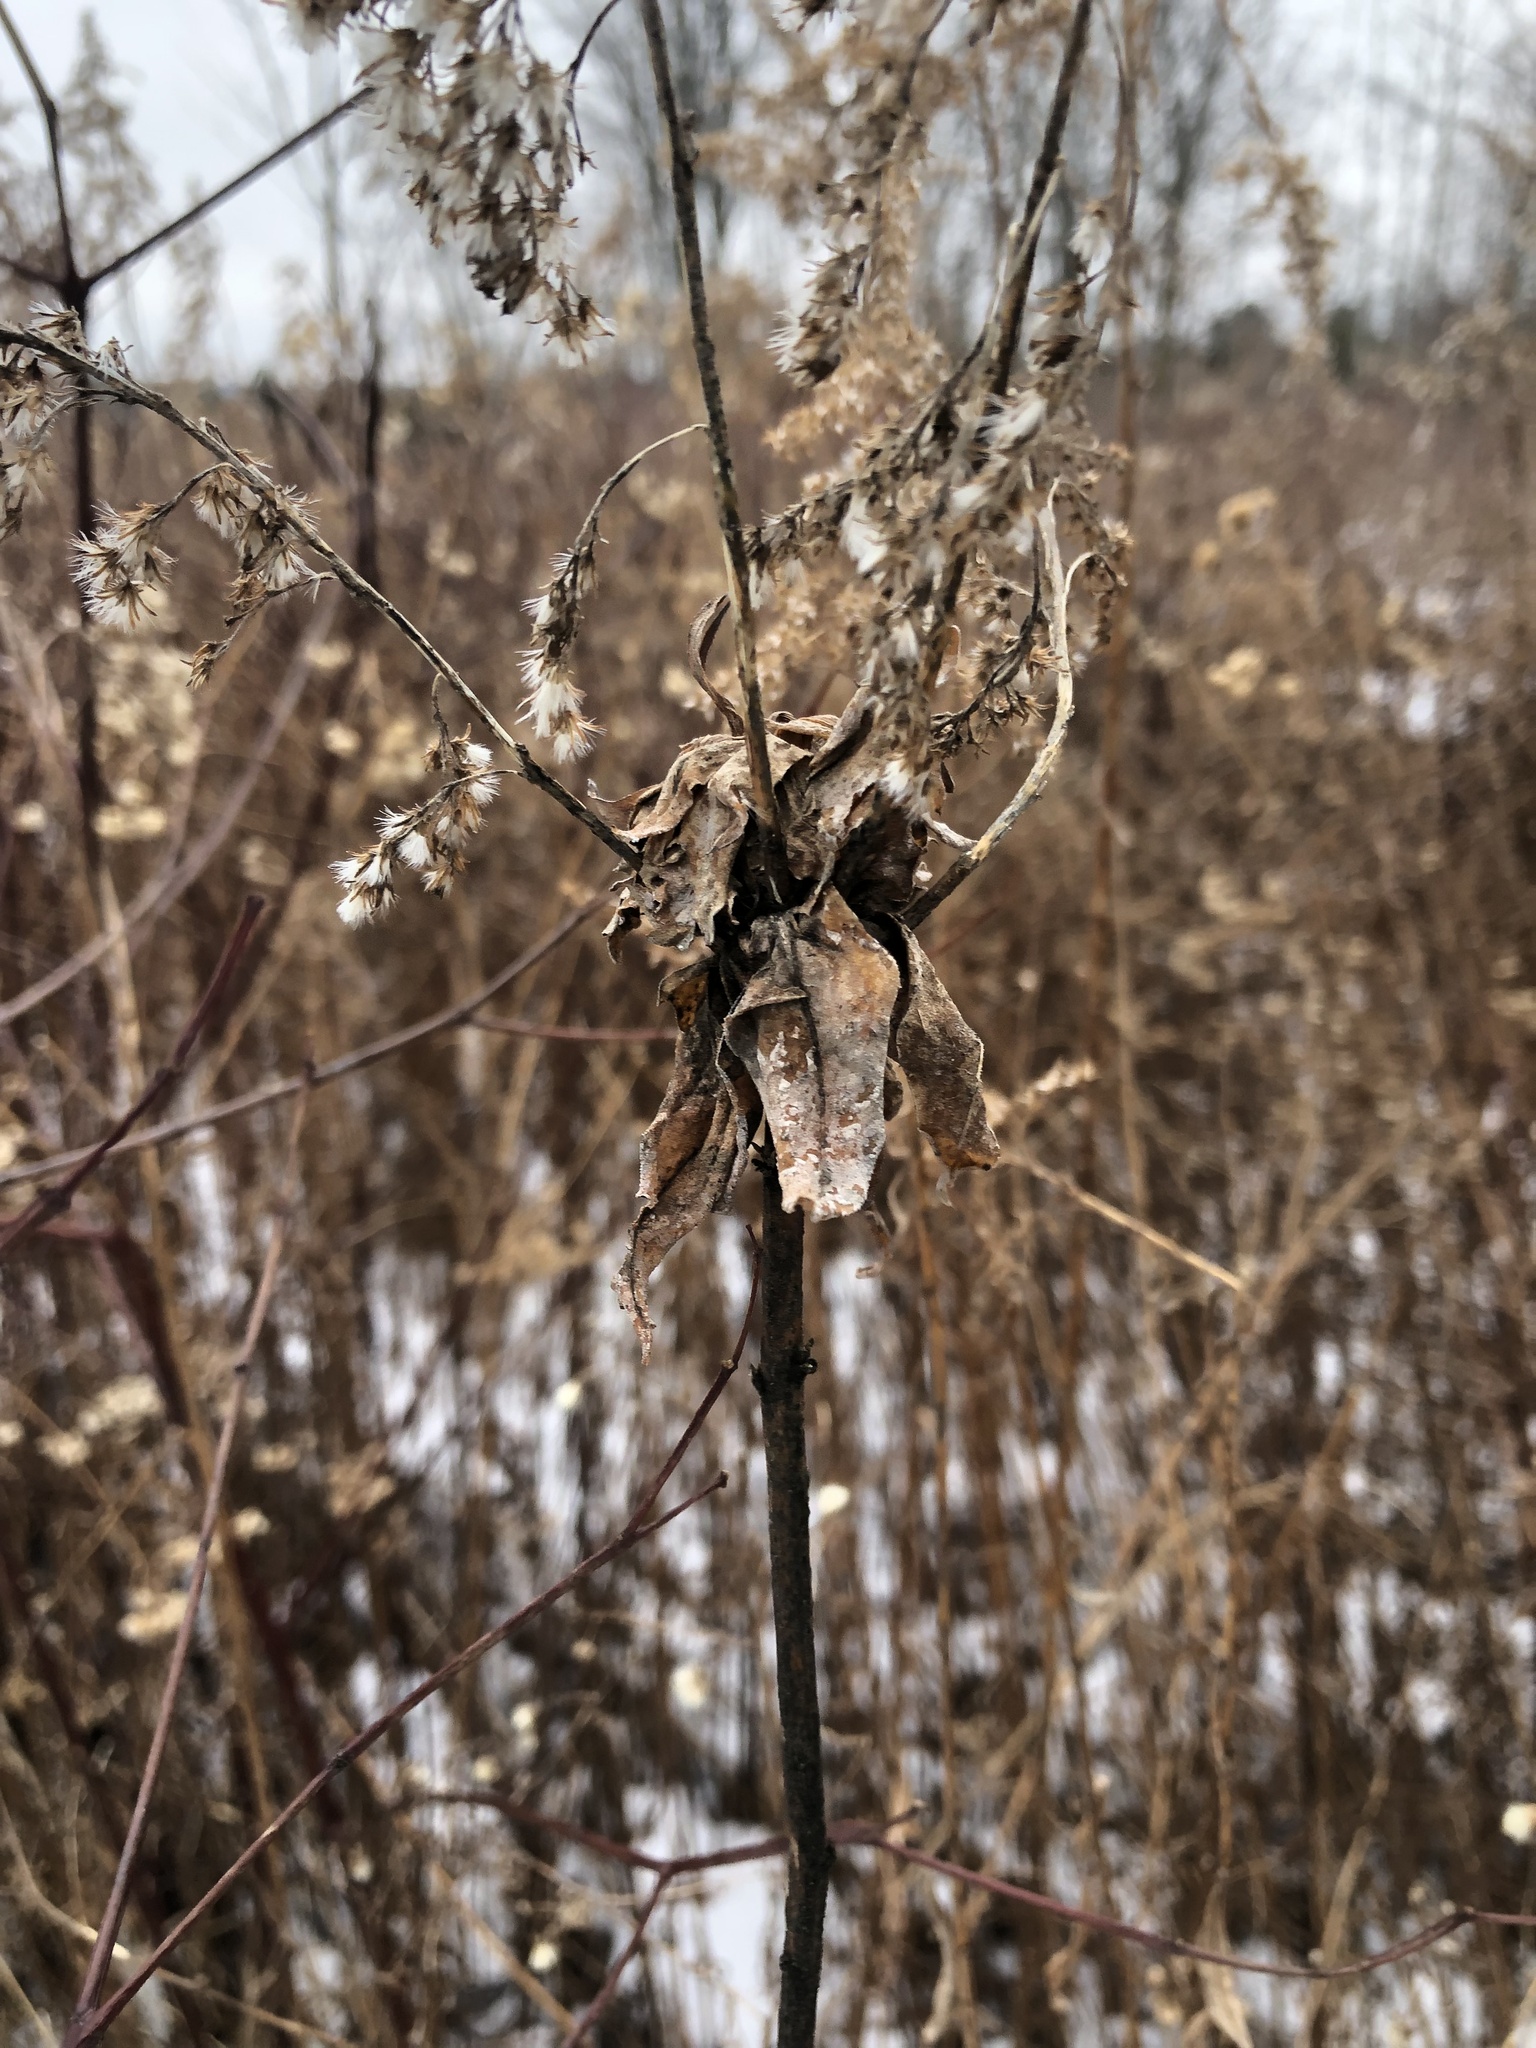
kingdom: Animalia
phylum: Arthropoda
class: Insecta
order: Diptera
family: Cecidomyiidae
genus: Rhopalomyia
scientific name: Rhopalomyia solidaginis
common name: Goldenrod bunch gall midge
